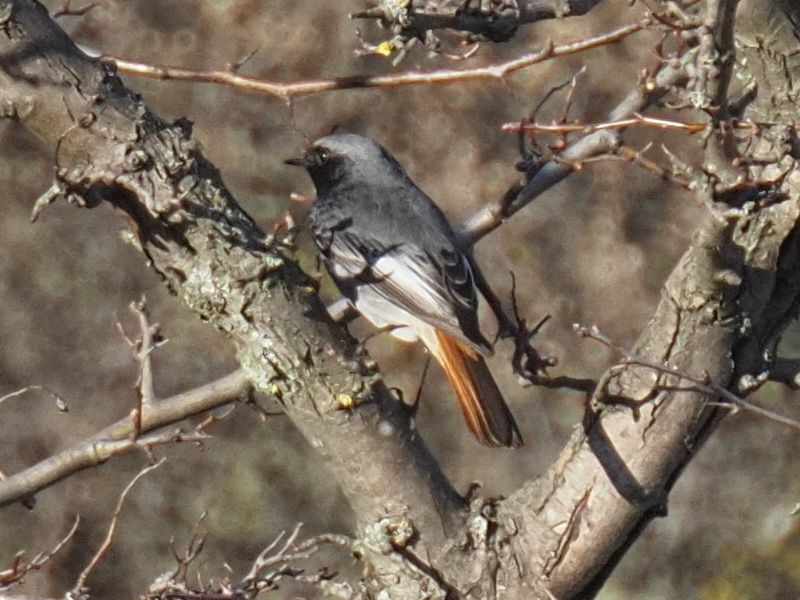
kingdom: Animalia
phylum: Chordata
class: Aves
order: Passeriformes
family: Muscicapidae
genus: Phoenicurus
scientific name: Phoenicurus ochruros
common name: Black redstart
